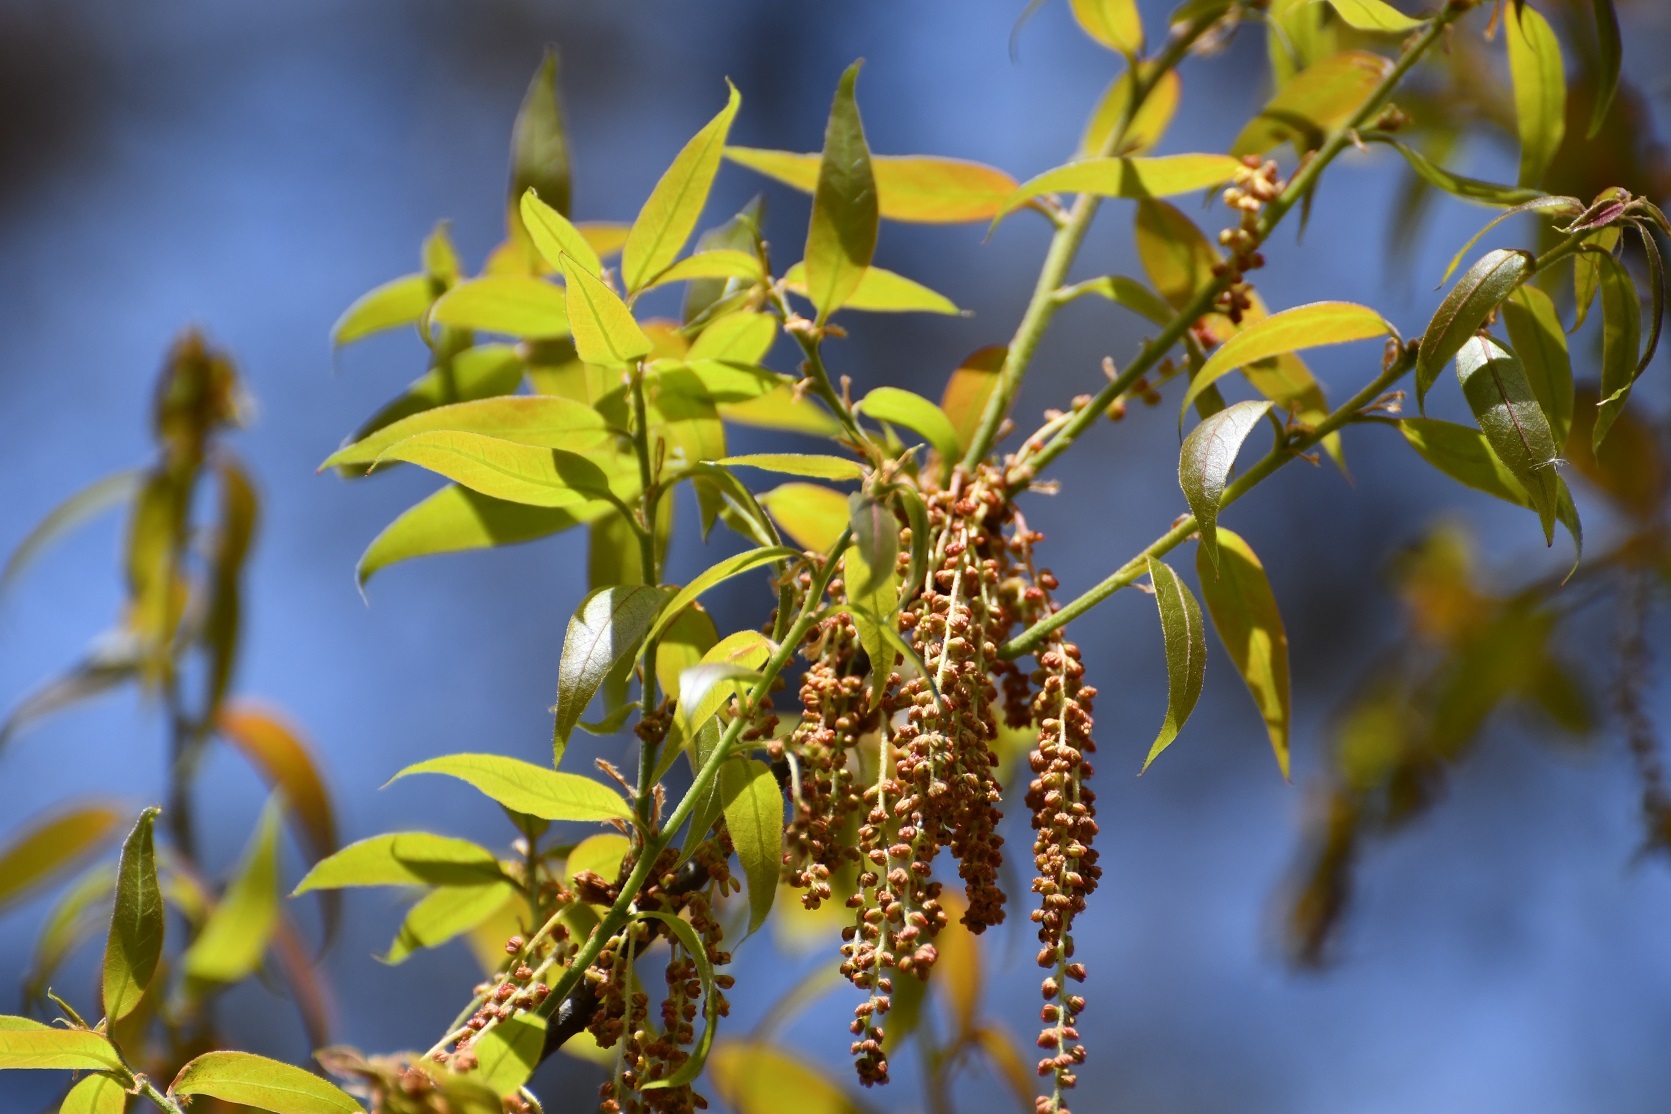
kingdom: Plantae
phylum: Tracheophyta
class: Magnoliopsida
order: Fagales
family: Fagaceae
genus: Quercus
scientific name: Quercus acatenangensis
